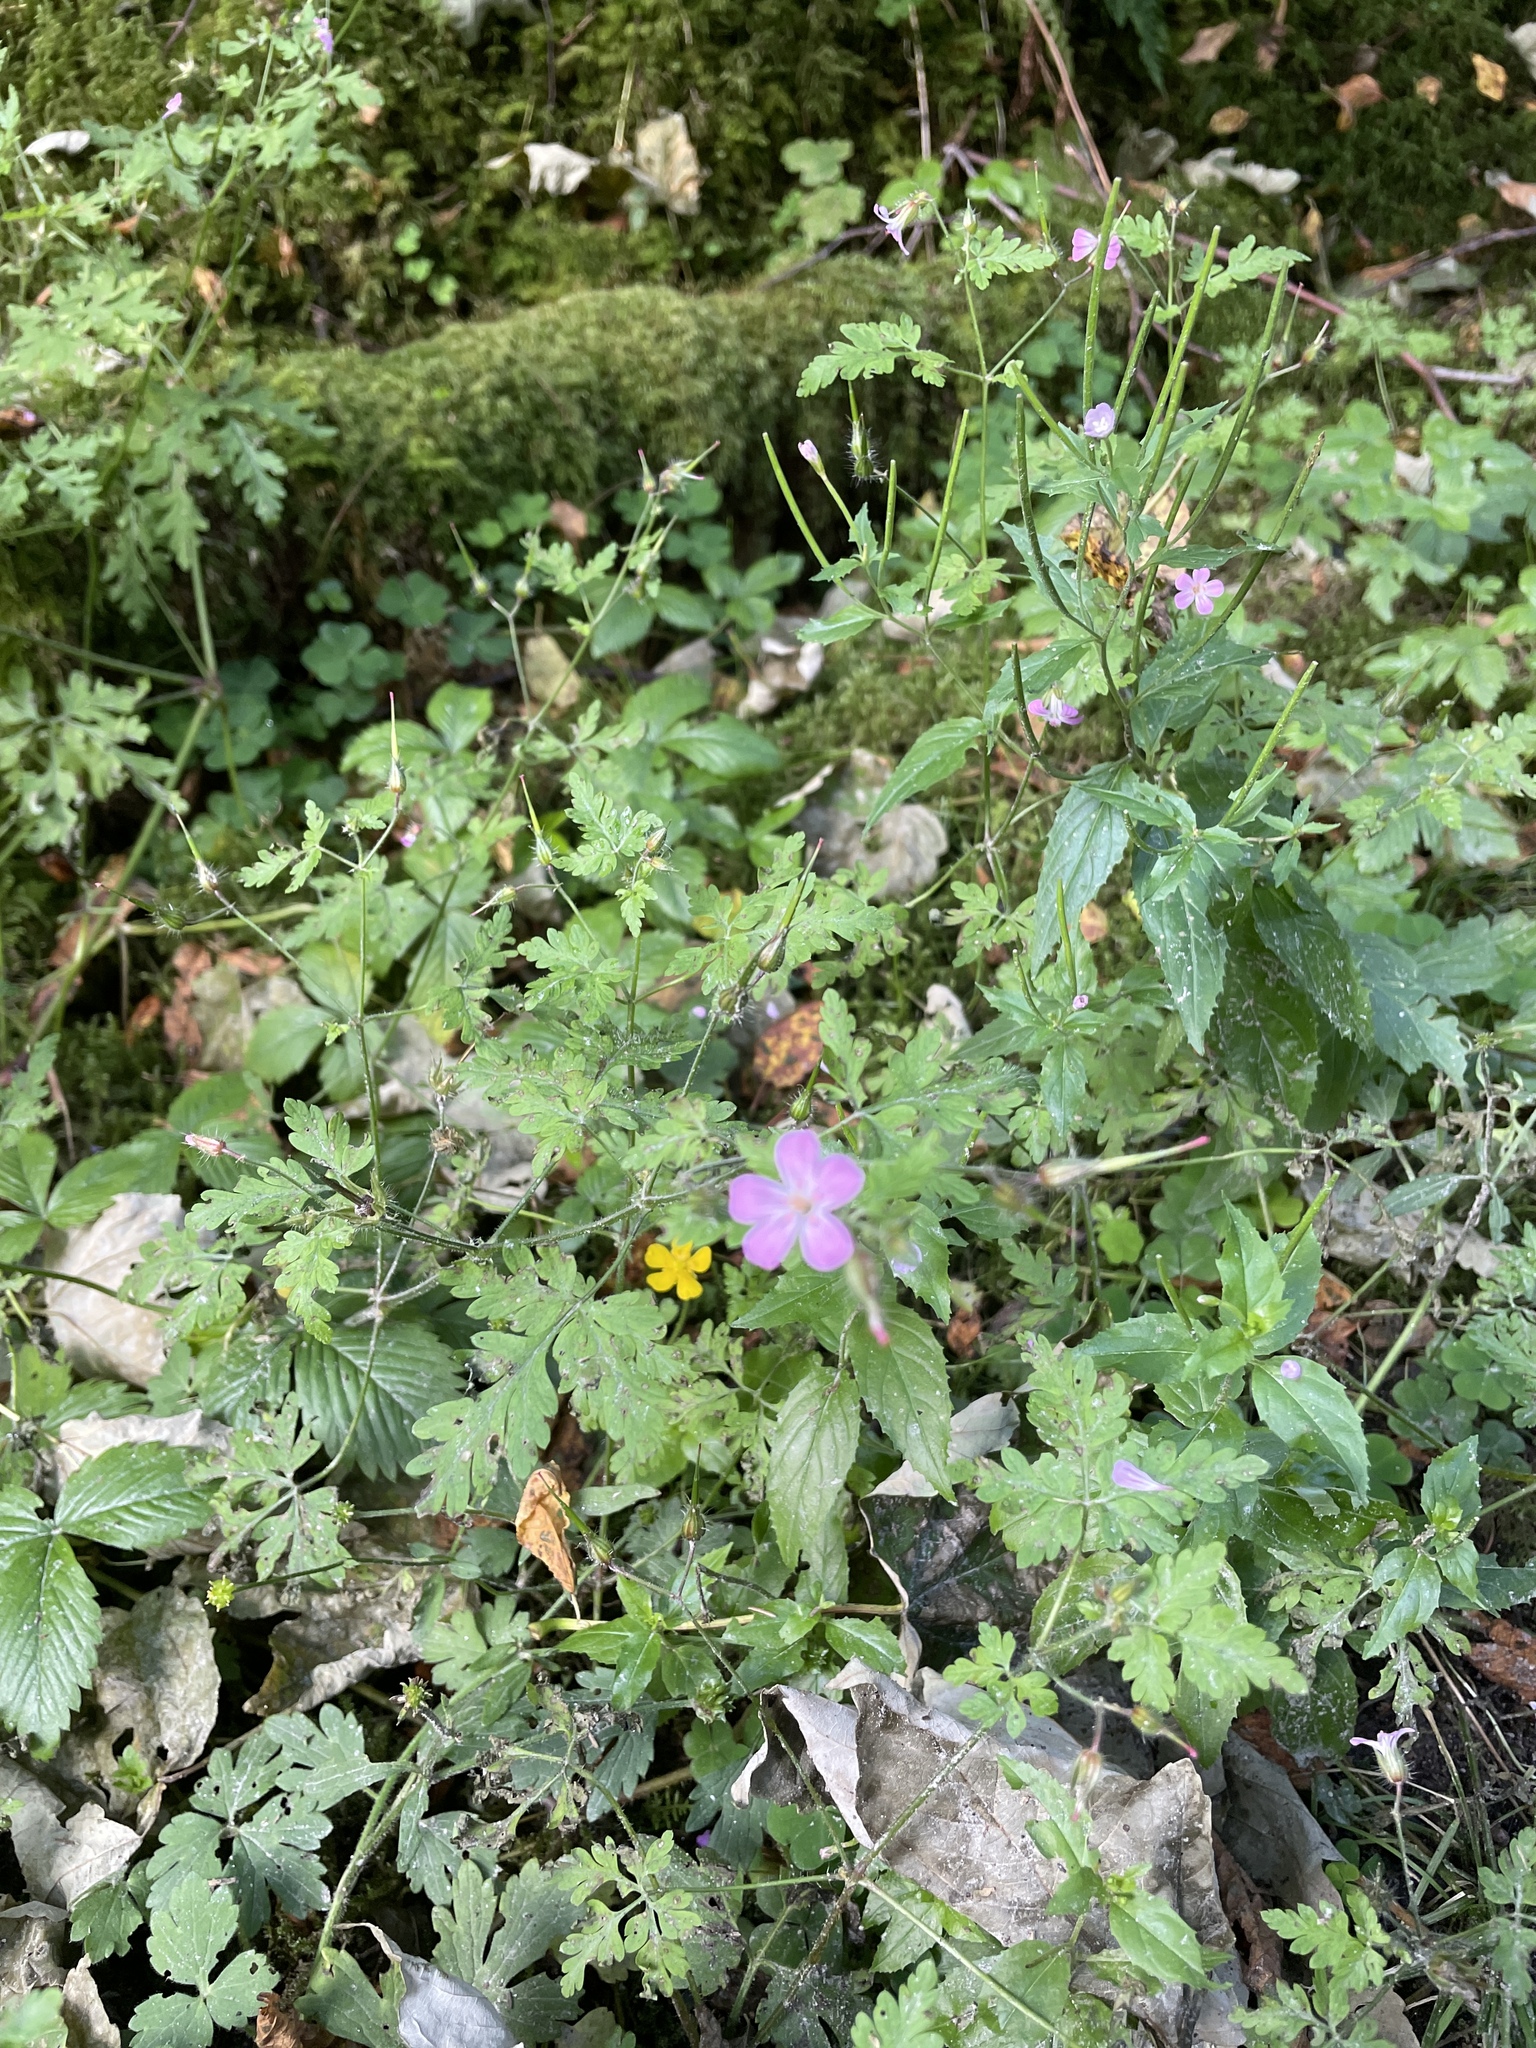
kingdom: Plantae
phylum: Tracheophyta
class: Magnoliopsida
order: Geraniales
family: Geraniaceae
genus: Geranium
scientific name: Geranium robertianum
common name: Herb-robert
